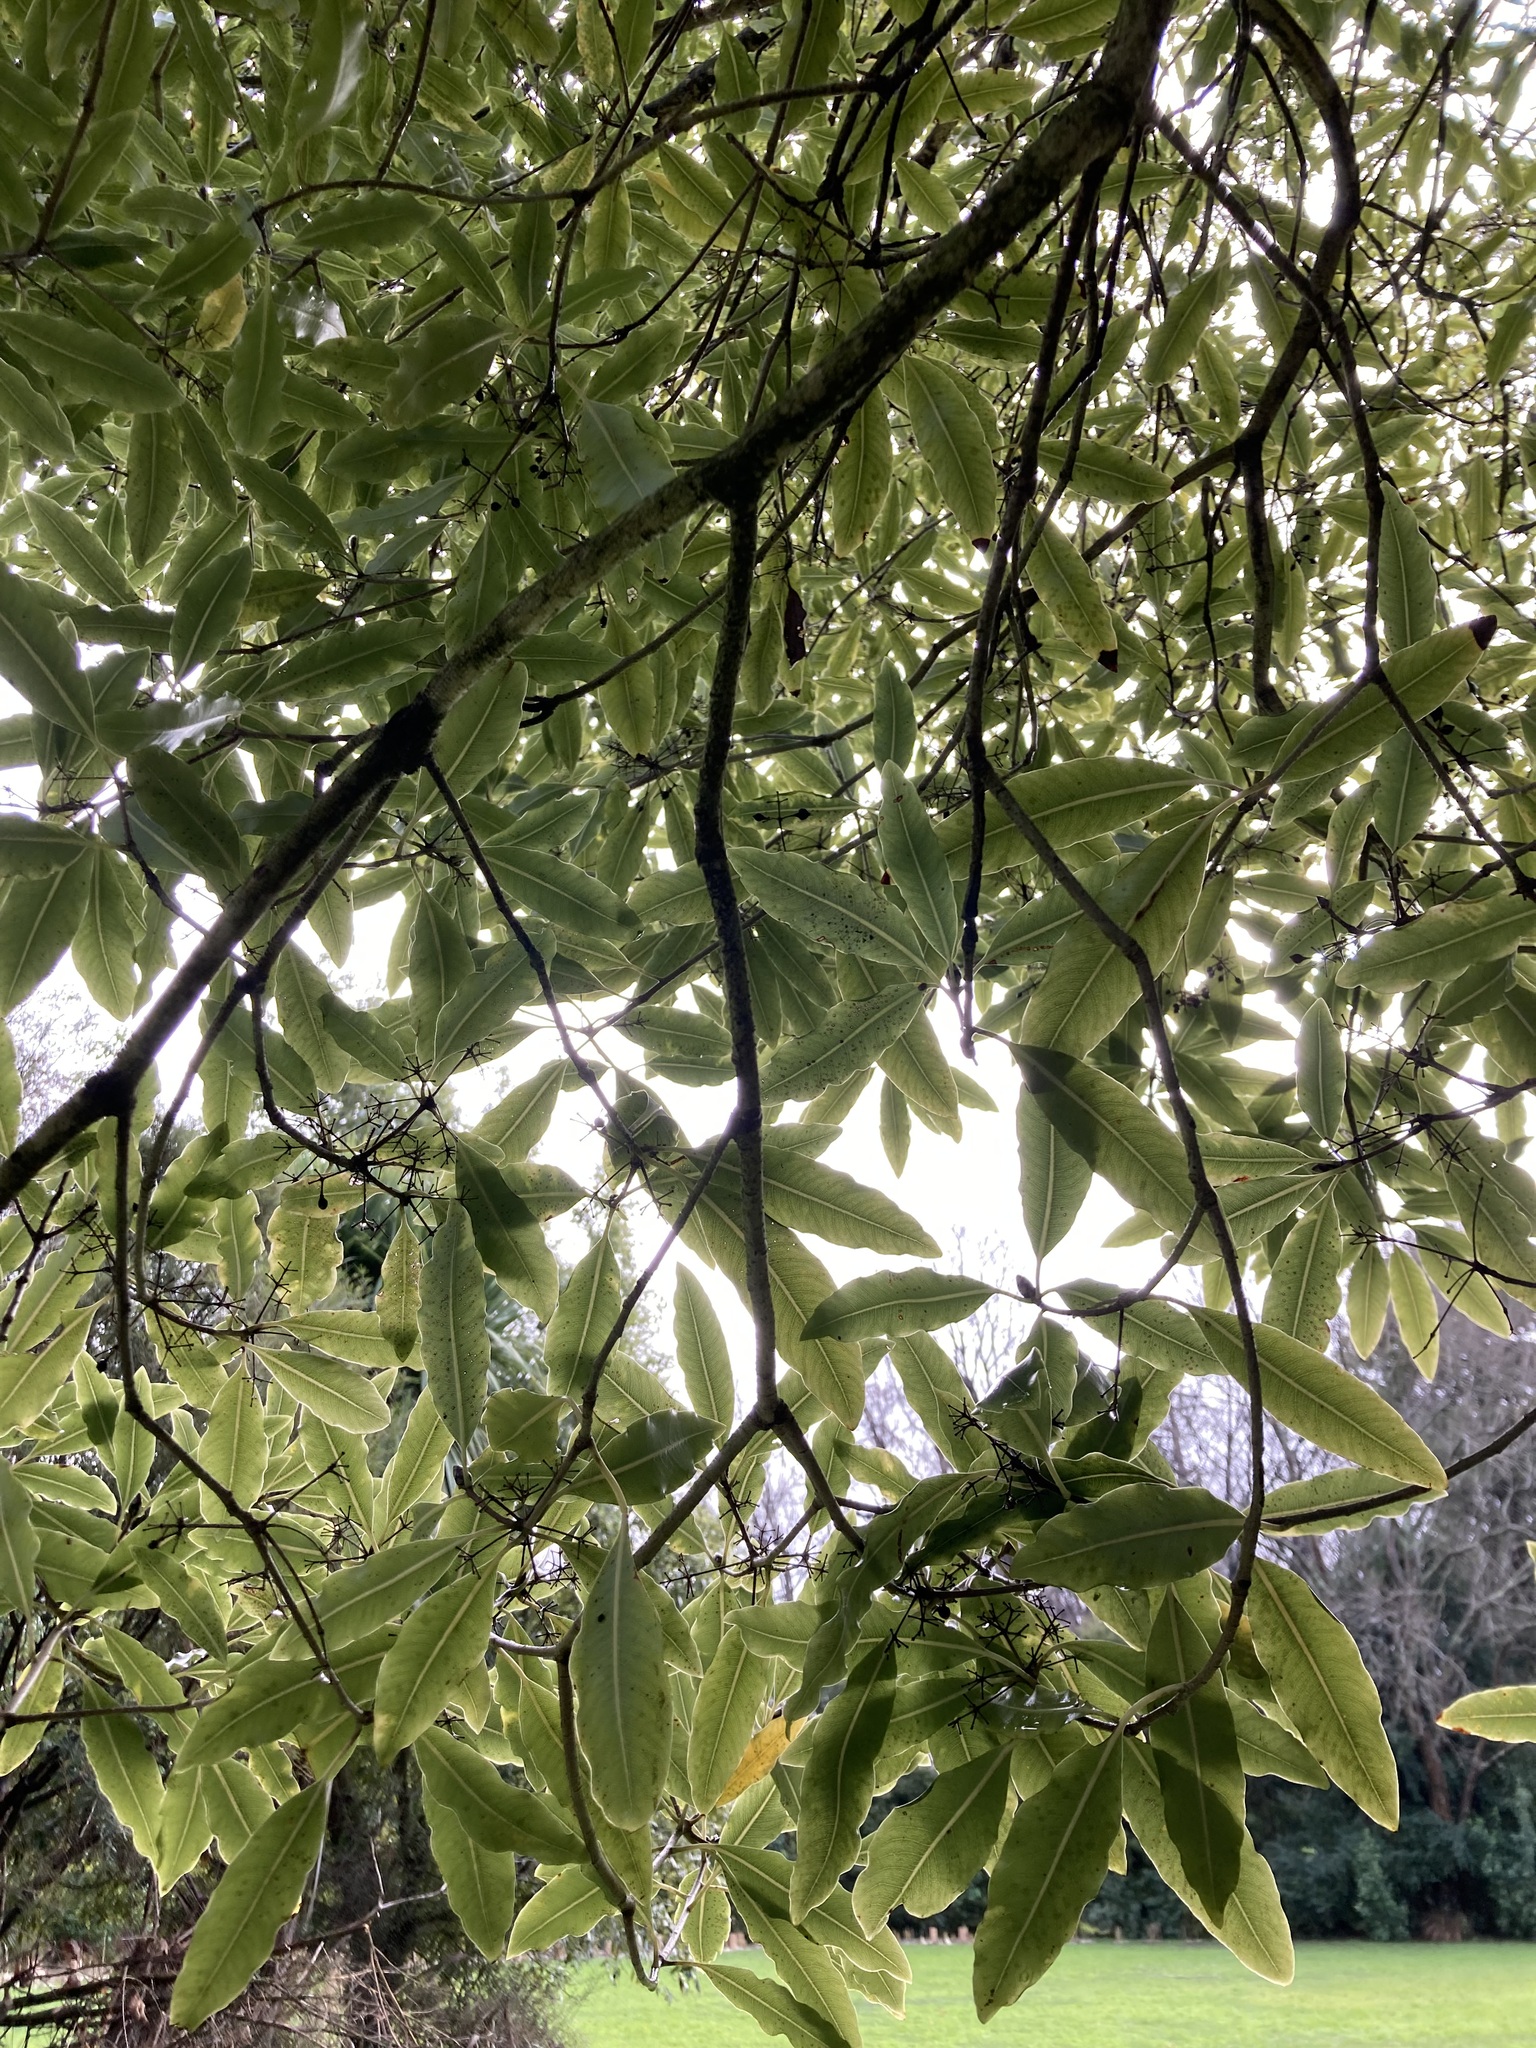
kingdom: Plantae
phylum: Tracheophyta
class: Magnoliopsida
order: Apiales
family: Pittosporaceae
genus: Pittosporum
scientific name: Pittosporum eugenioides
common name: Lemonwood
